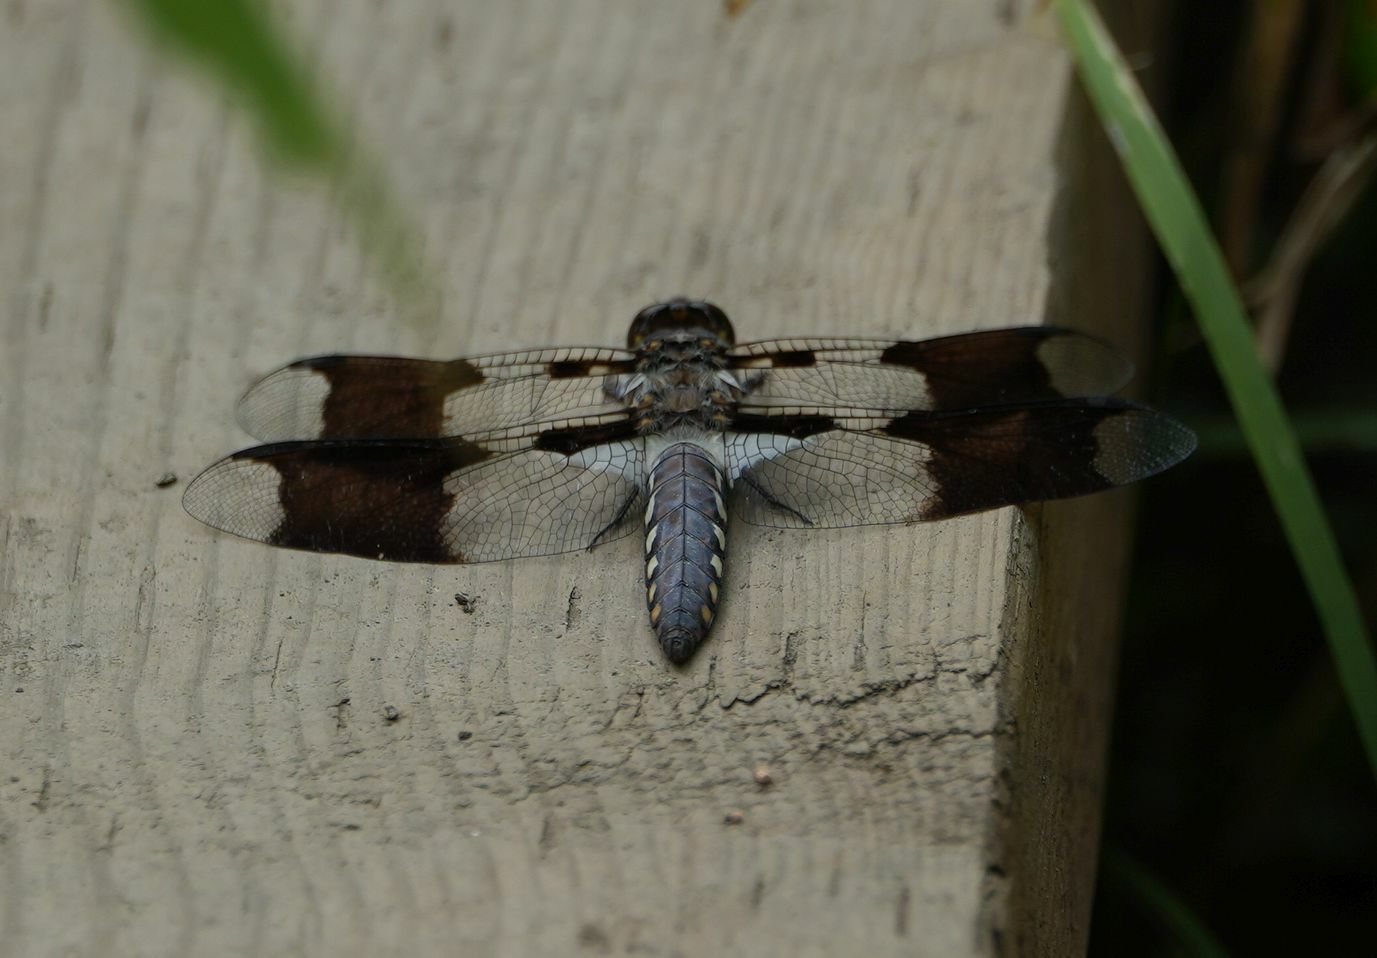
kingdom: Animalia
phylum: Arthropoda
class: Insecta
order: Odonata
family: Libellulidae
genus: Plathemis
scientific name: Plathemis lydia
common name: Common whitetail
